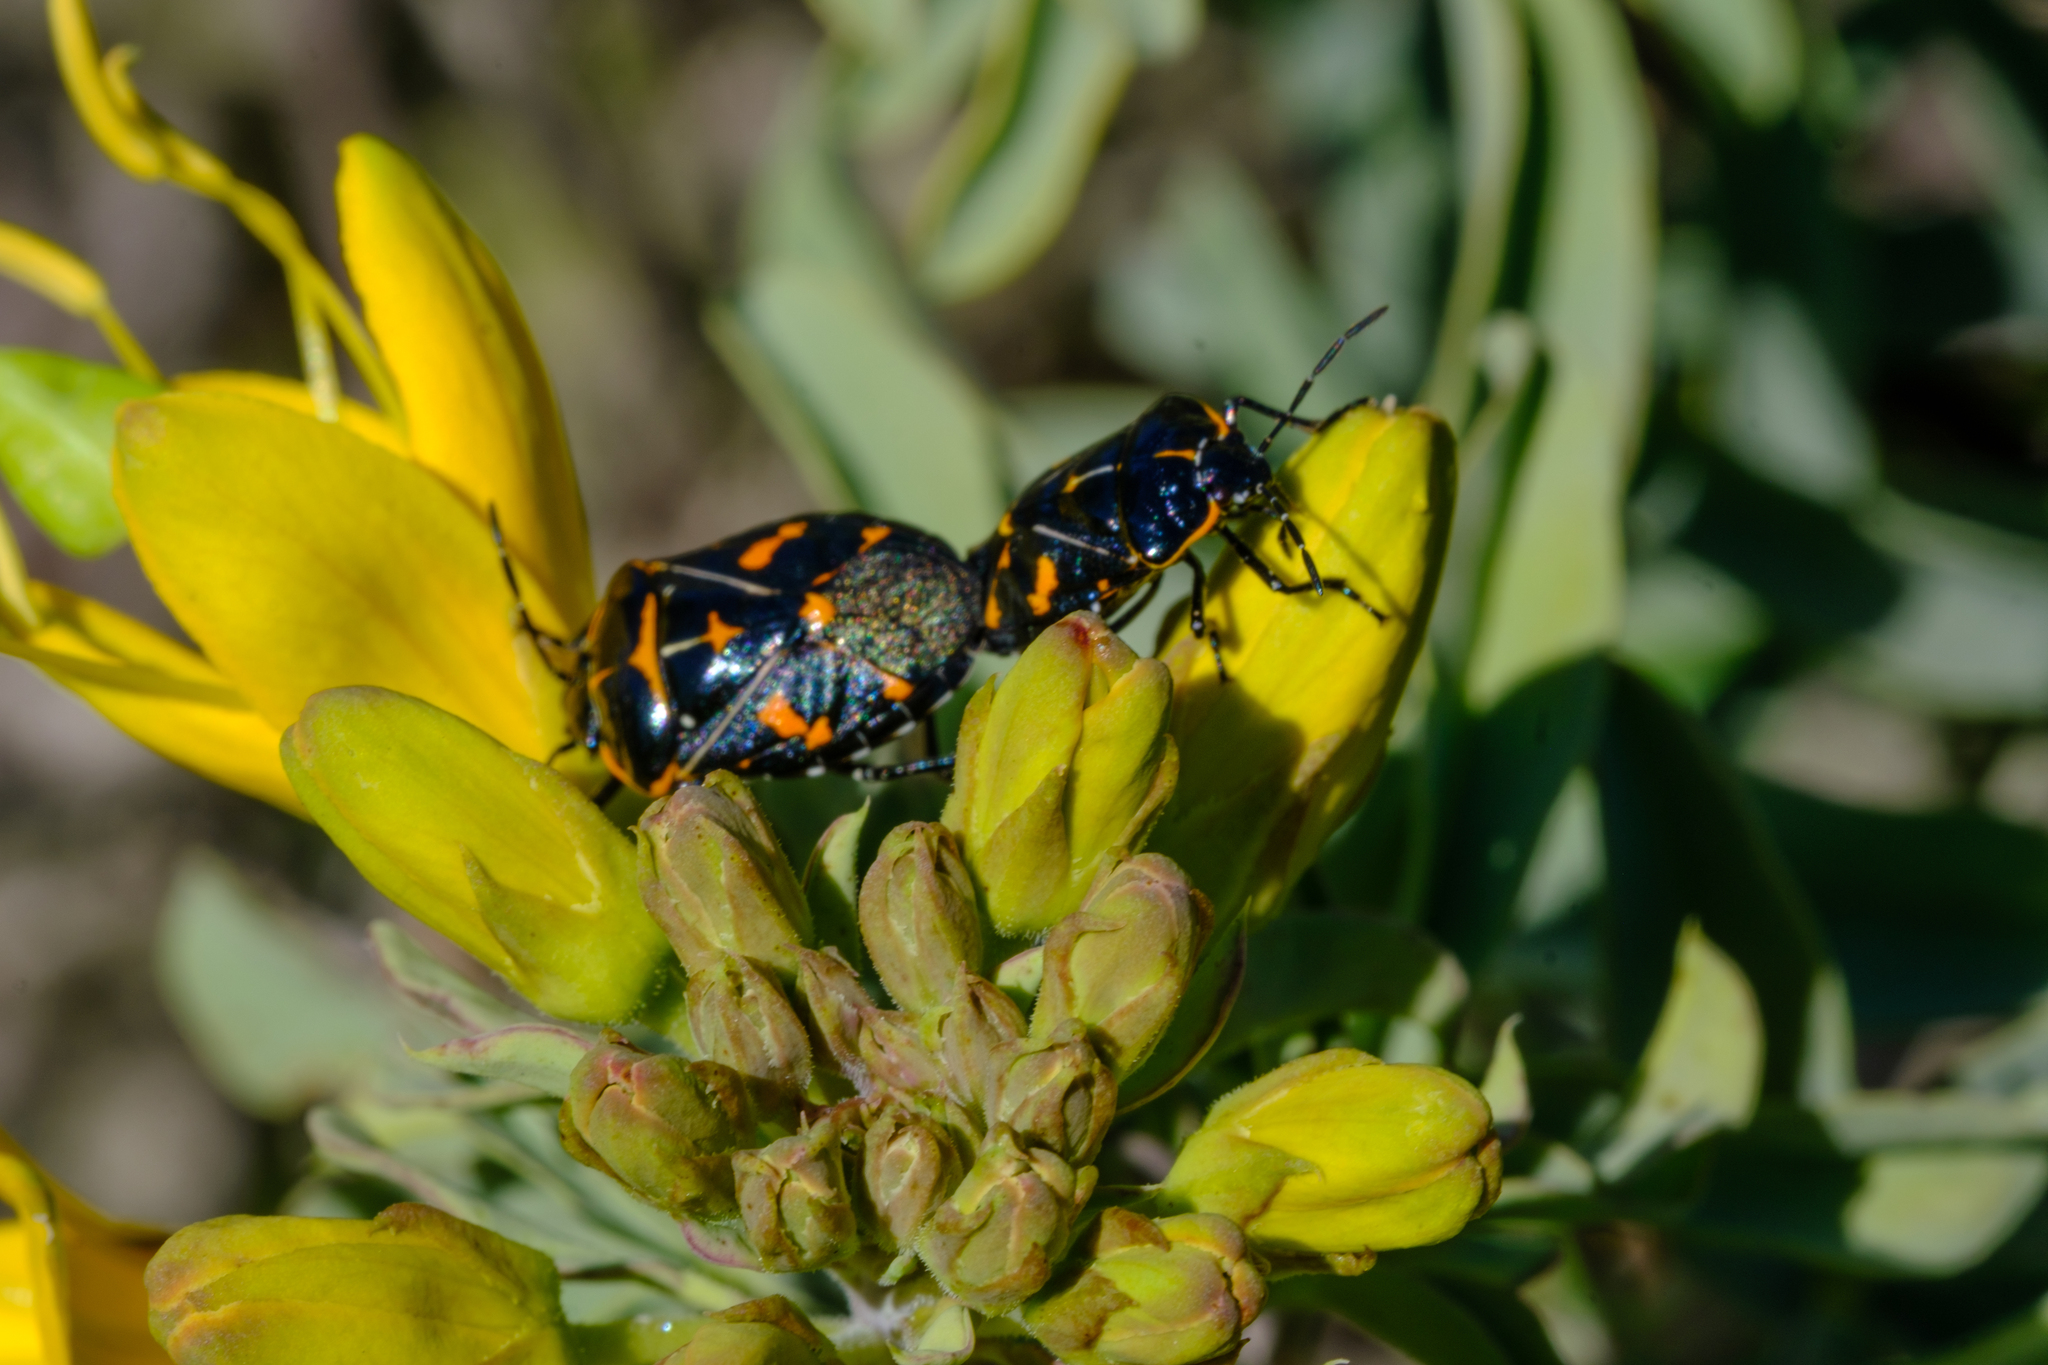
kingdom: Animalia
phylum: Arthropoda
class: Insecta
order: Hemiptera
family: Pentatomidae
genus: Murgantia
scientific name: Murgantia histrionica
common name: Harlequin bug
